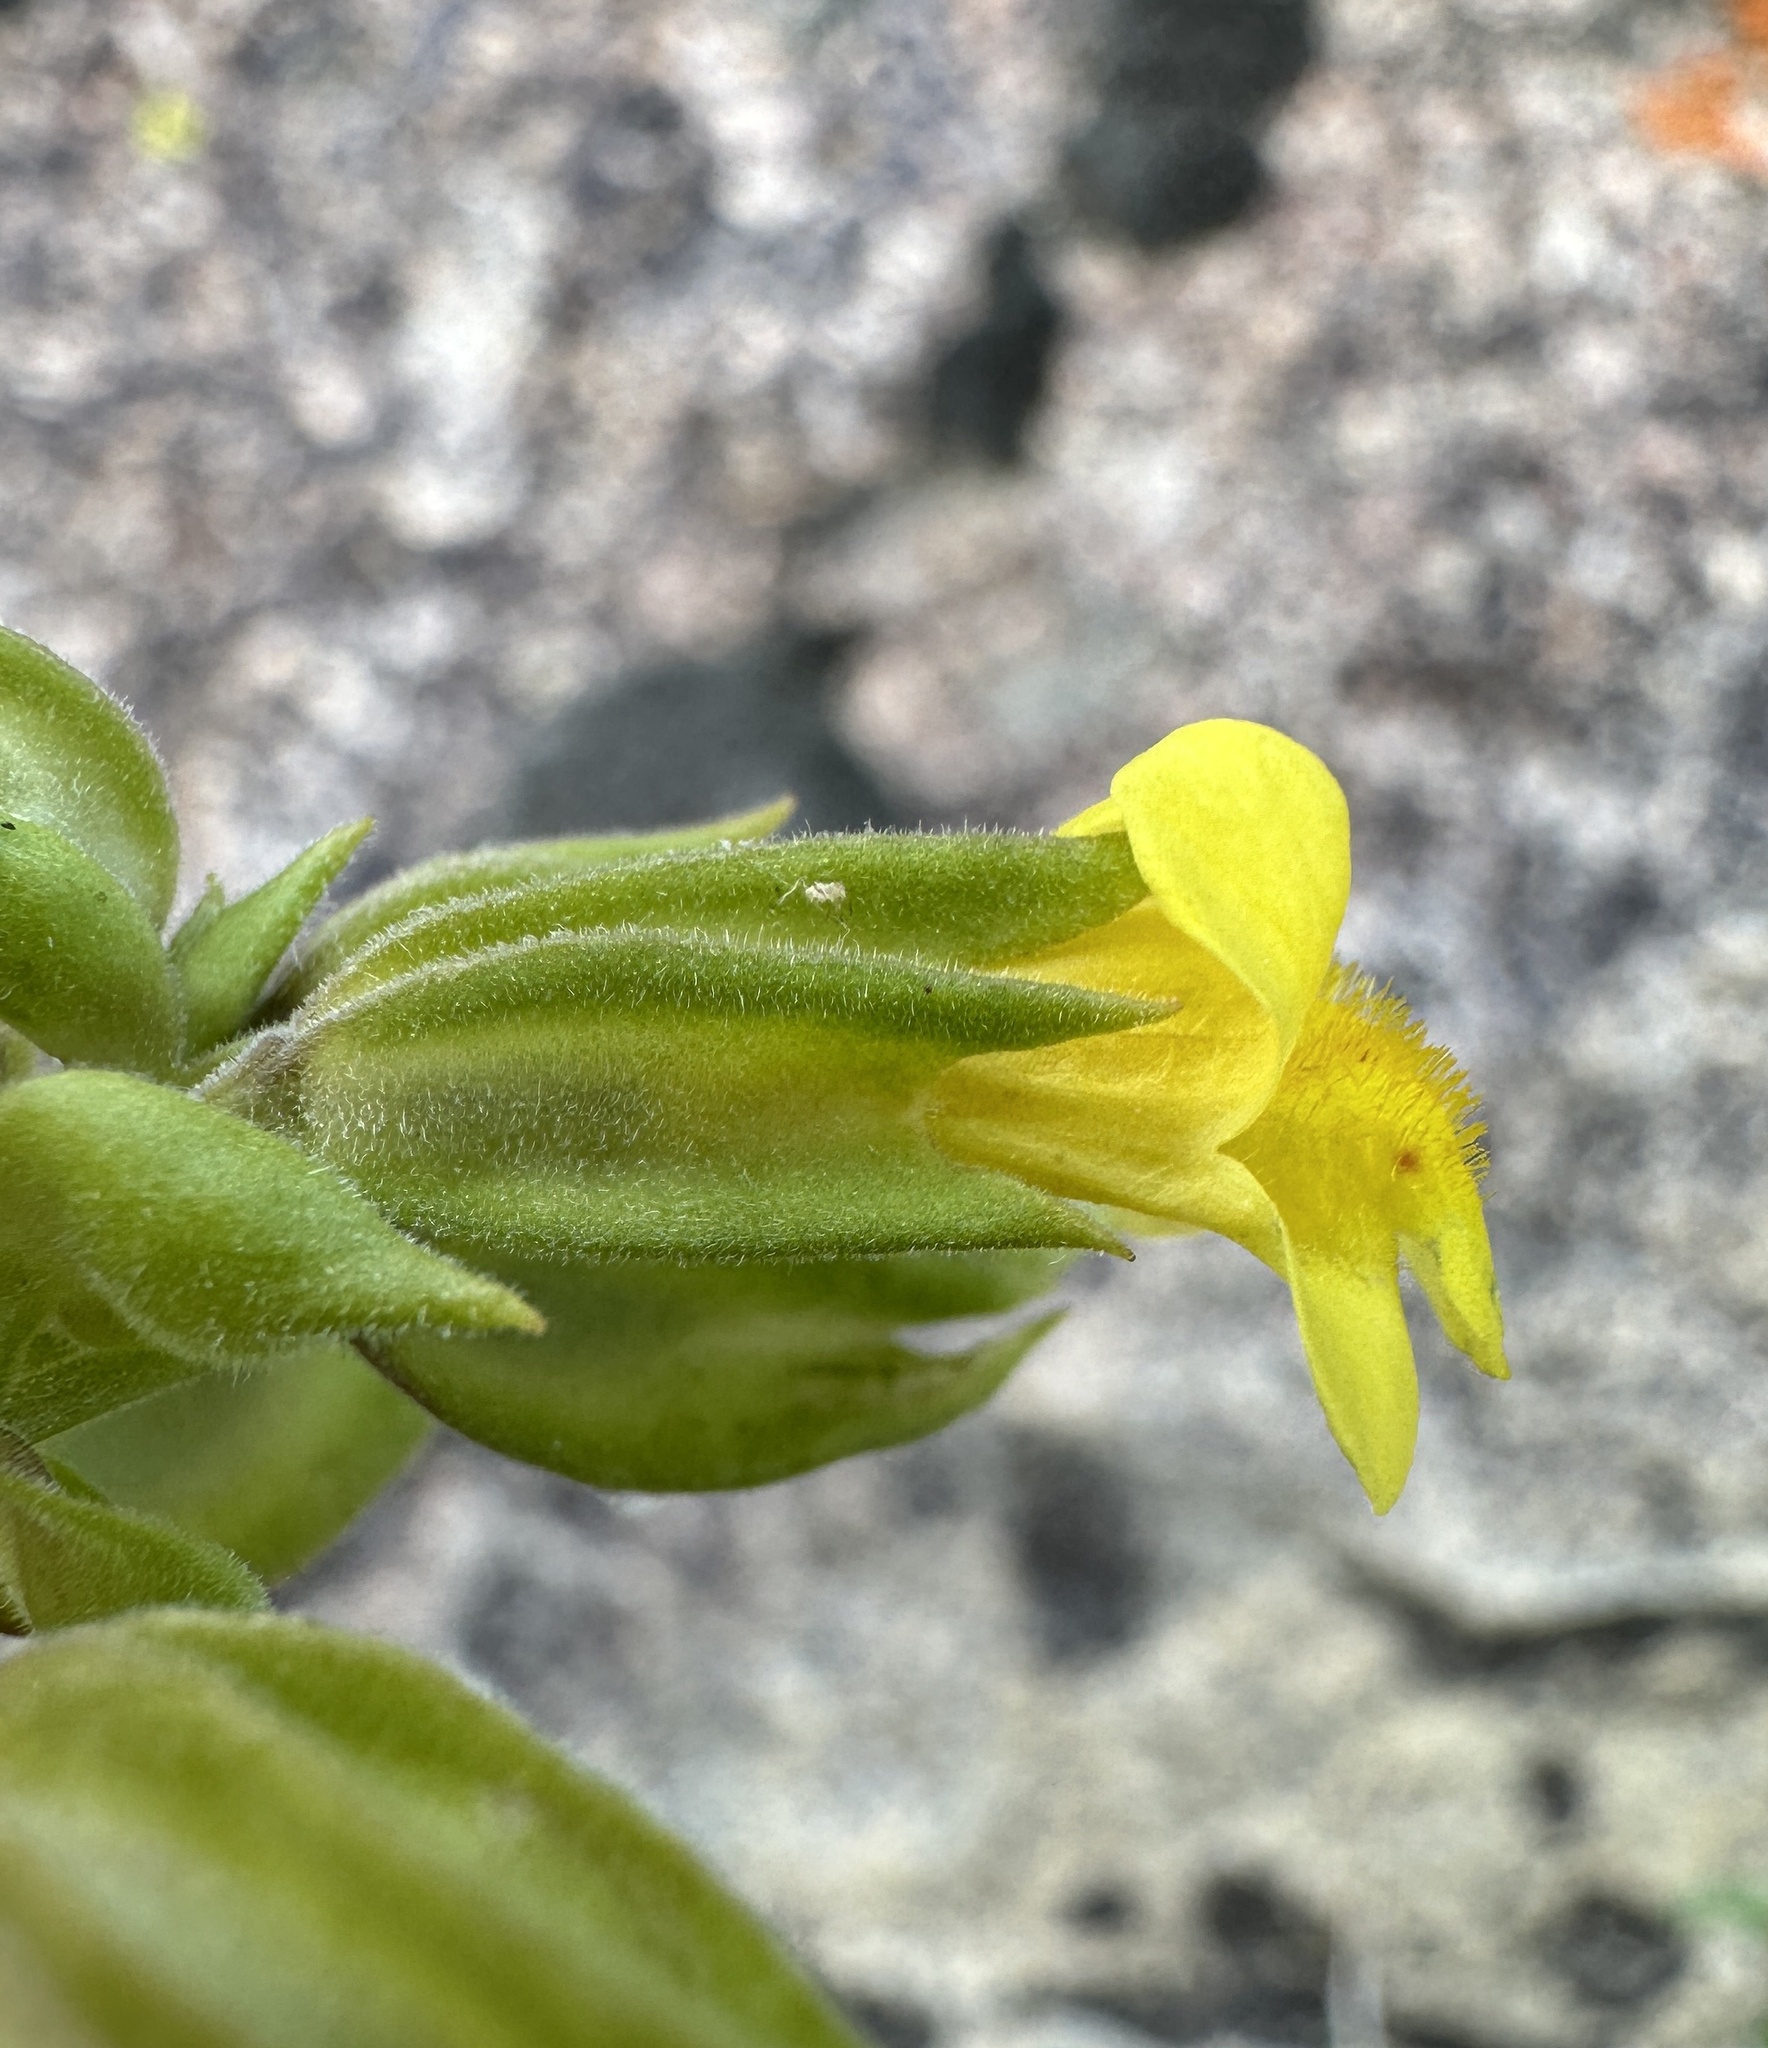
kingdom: Plantae
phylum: Tracheophyta
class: Magnoliopsida
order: Lamiales
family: Phrymaceae
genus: Erythranthe
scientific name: Erythranthe bergeri
